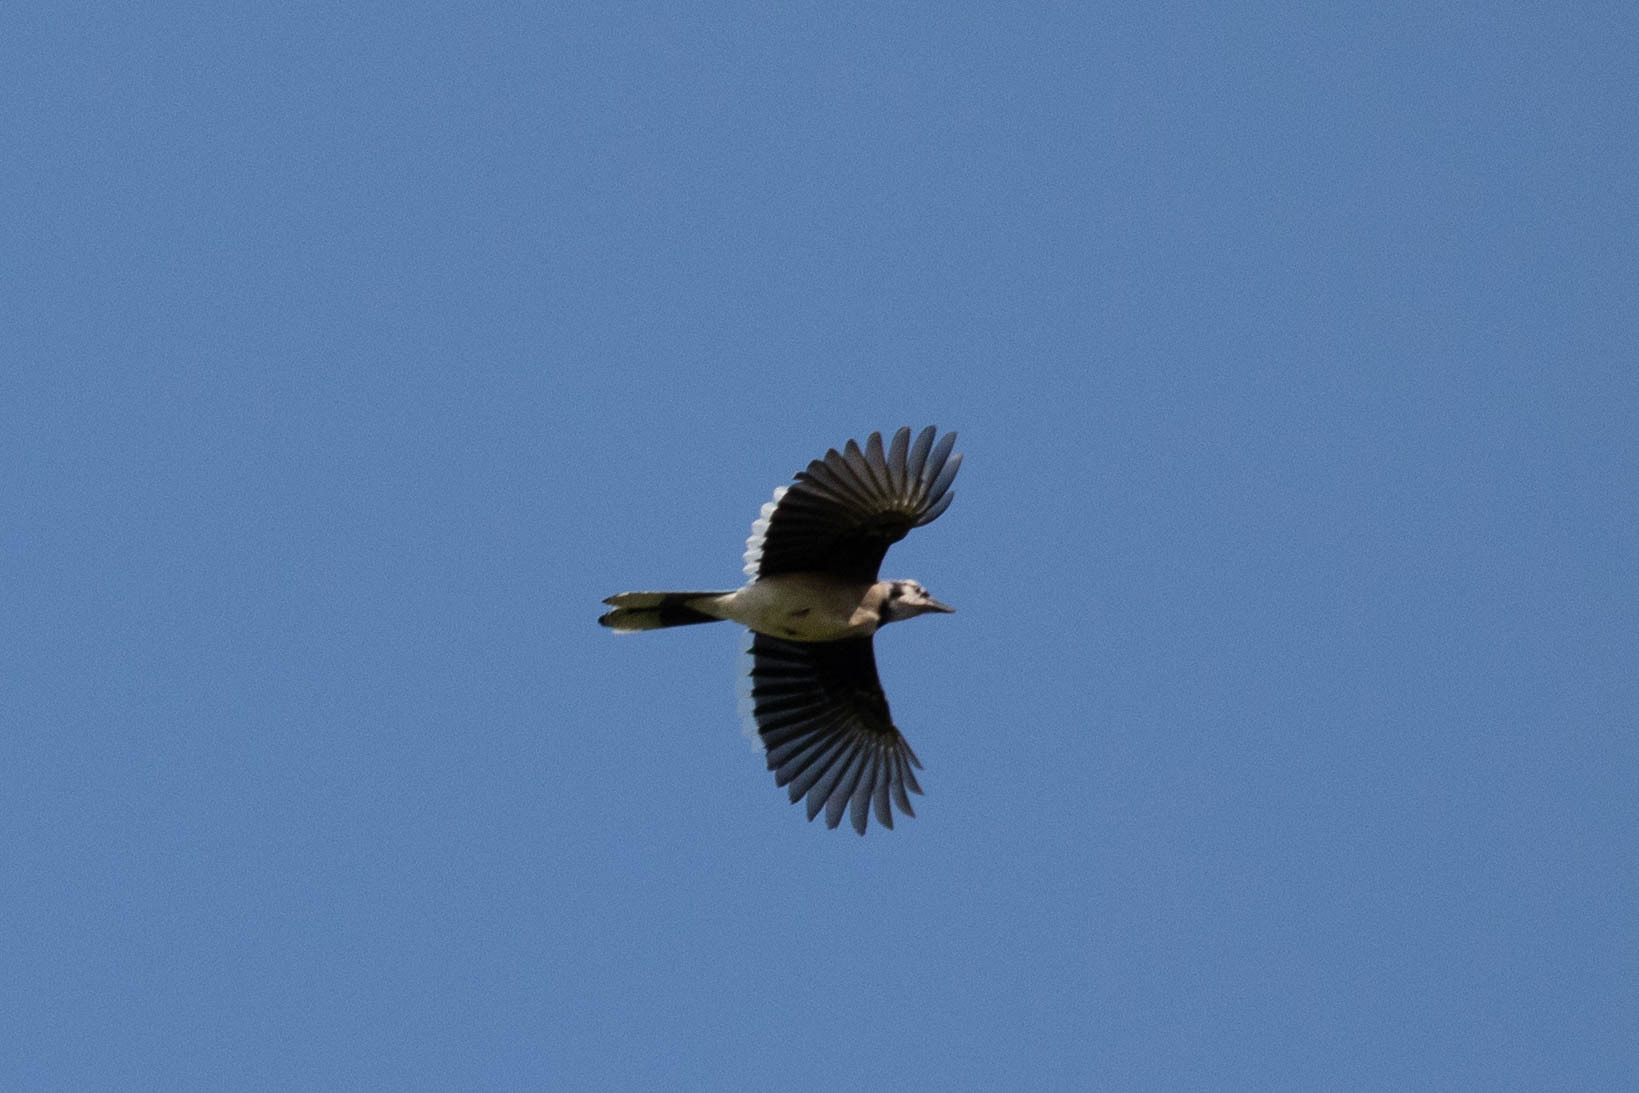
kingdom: Animalia
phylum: Chordata
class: Aves
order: Passeriformes
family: Corvidae
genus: Cyanocitta
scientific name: Cyanocitta cristata
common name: Blue jay
